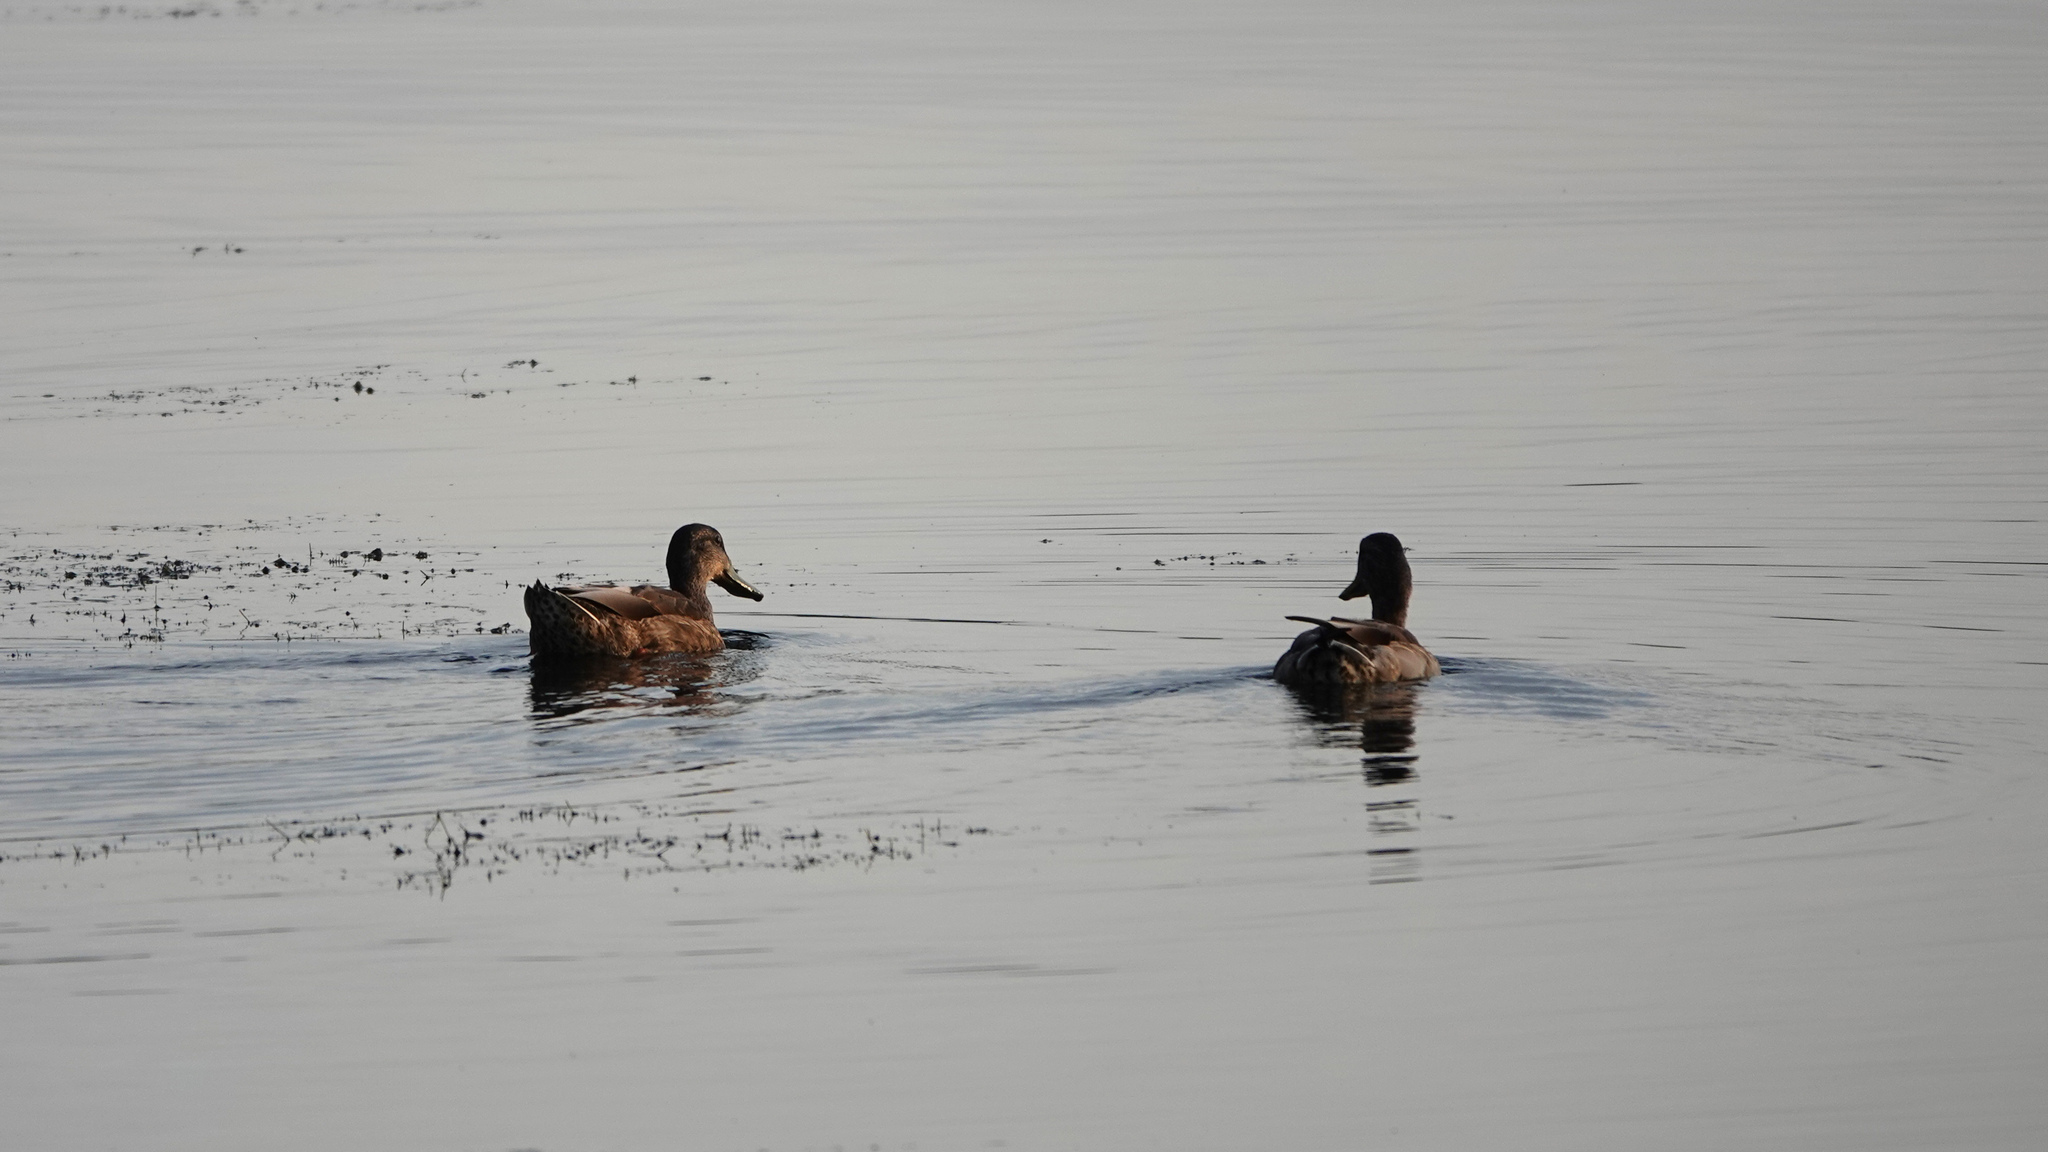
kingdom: Animalia
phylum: Chordata
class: Aves
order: Anseriformes
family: Anatidae
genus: Anas
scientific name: Anas platyrhynchos
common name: Mallard
